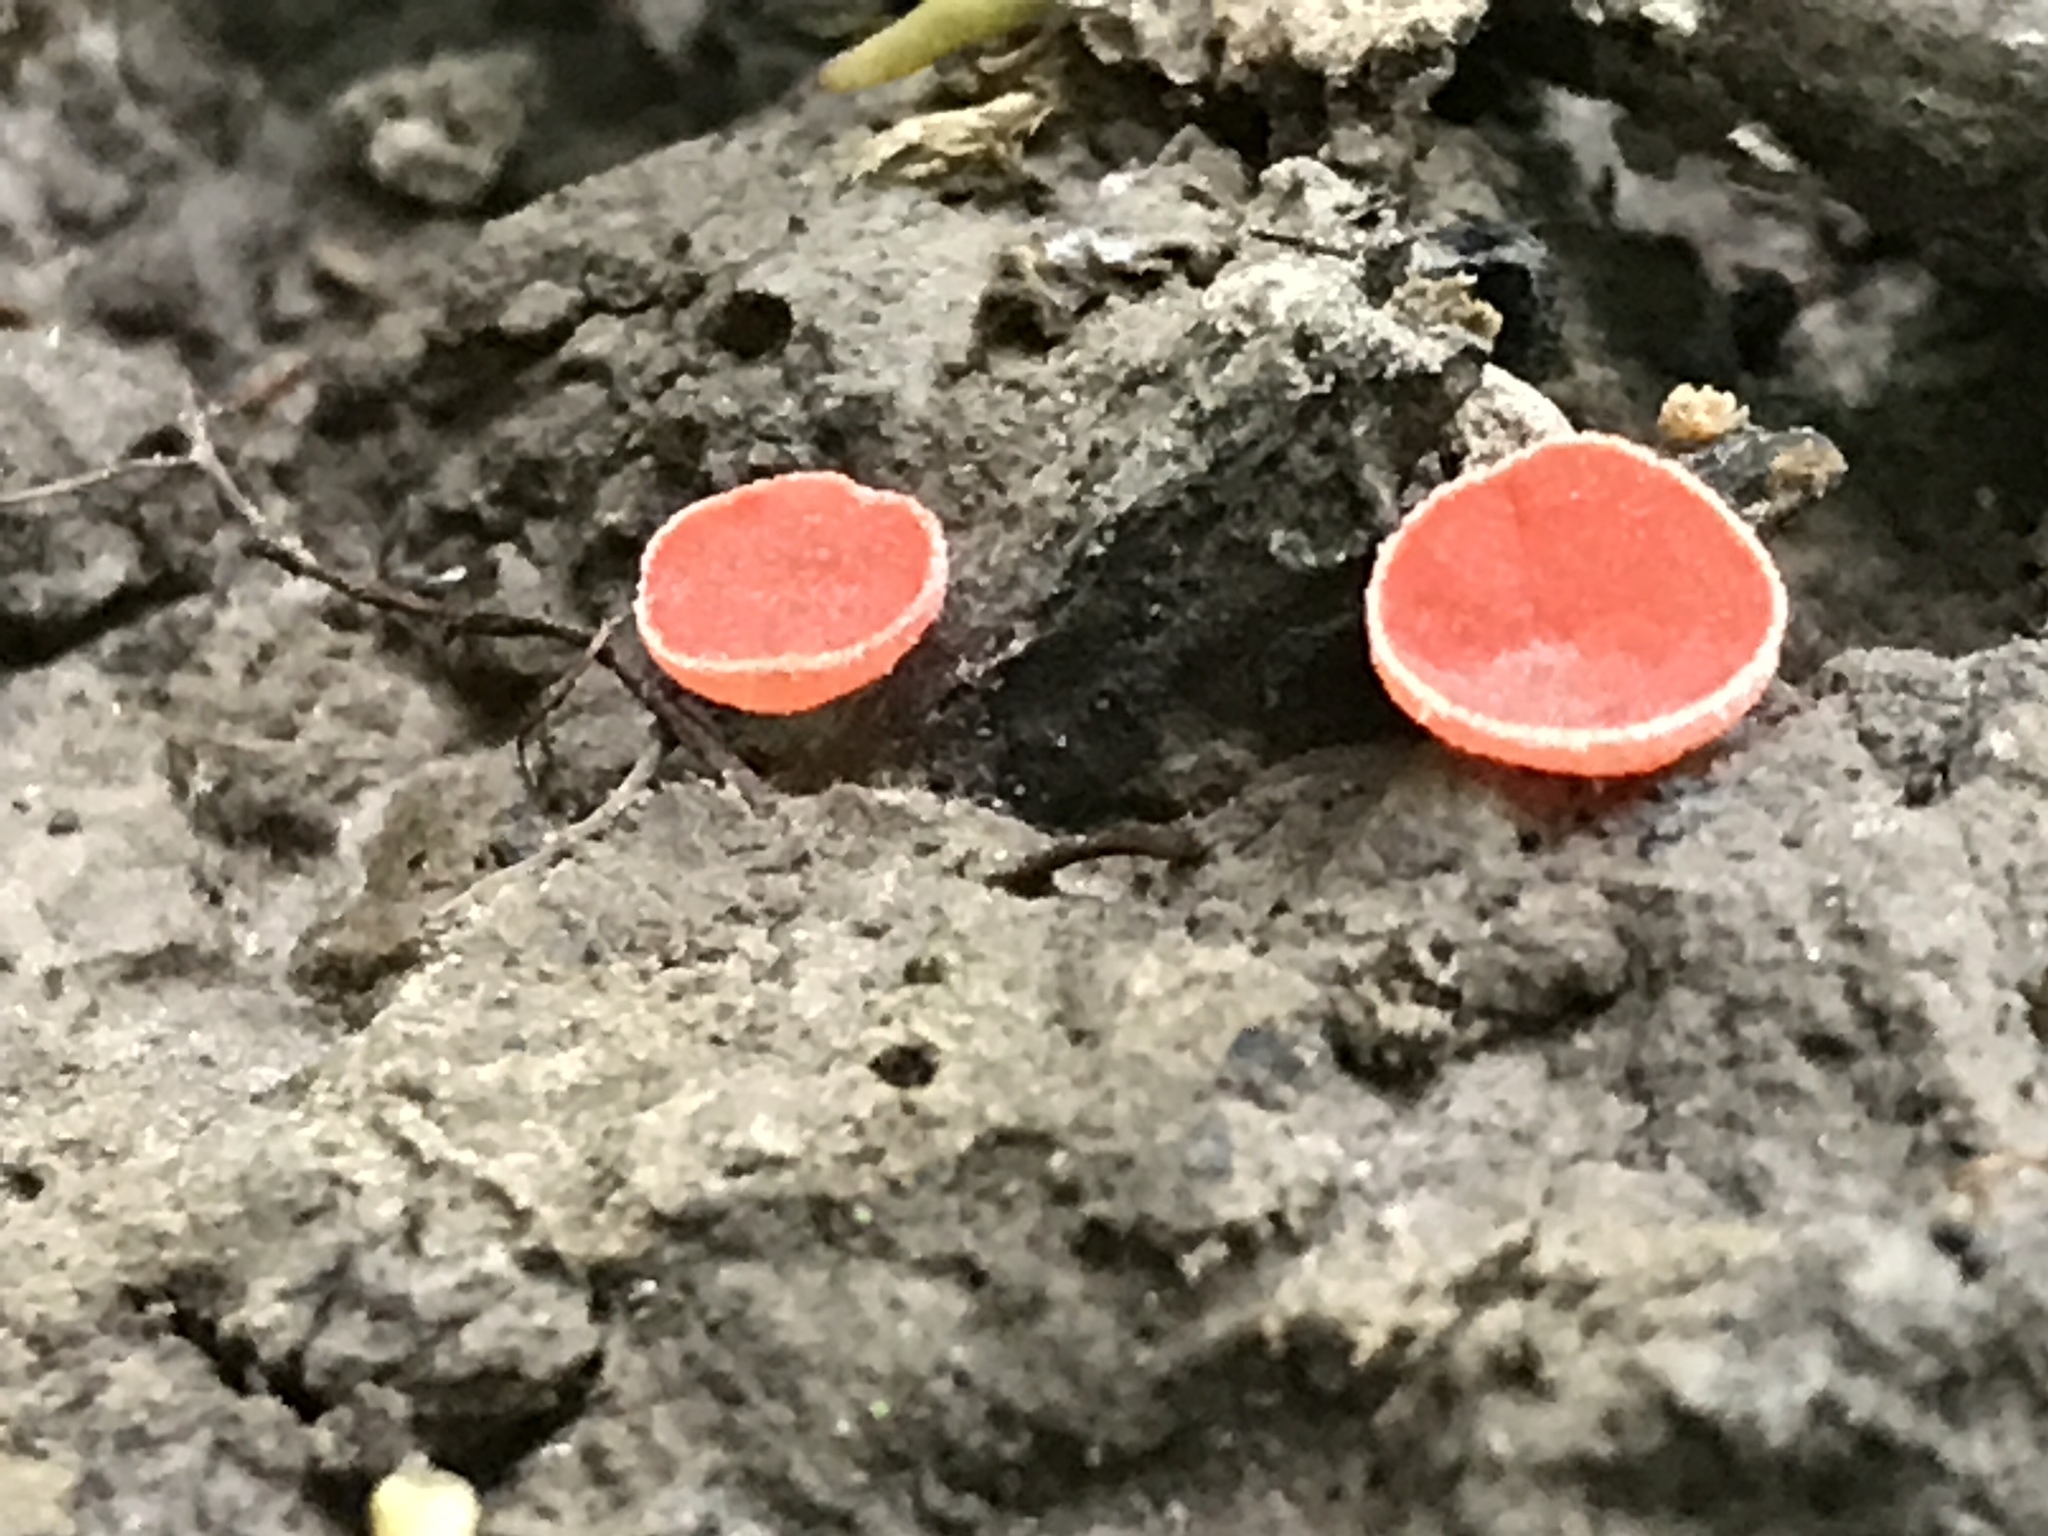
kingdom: Fungi
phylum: Ascomycota
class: Pezizomycetes
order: Pezizales
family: Sarcoscyphaceae
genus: Sarcoscypha
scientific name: Sarcoscypha occidentalis
